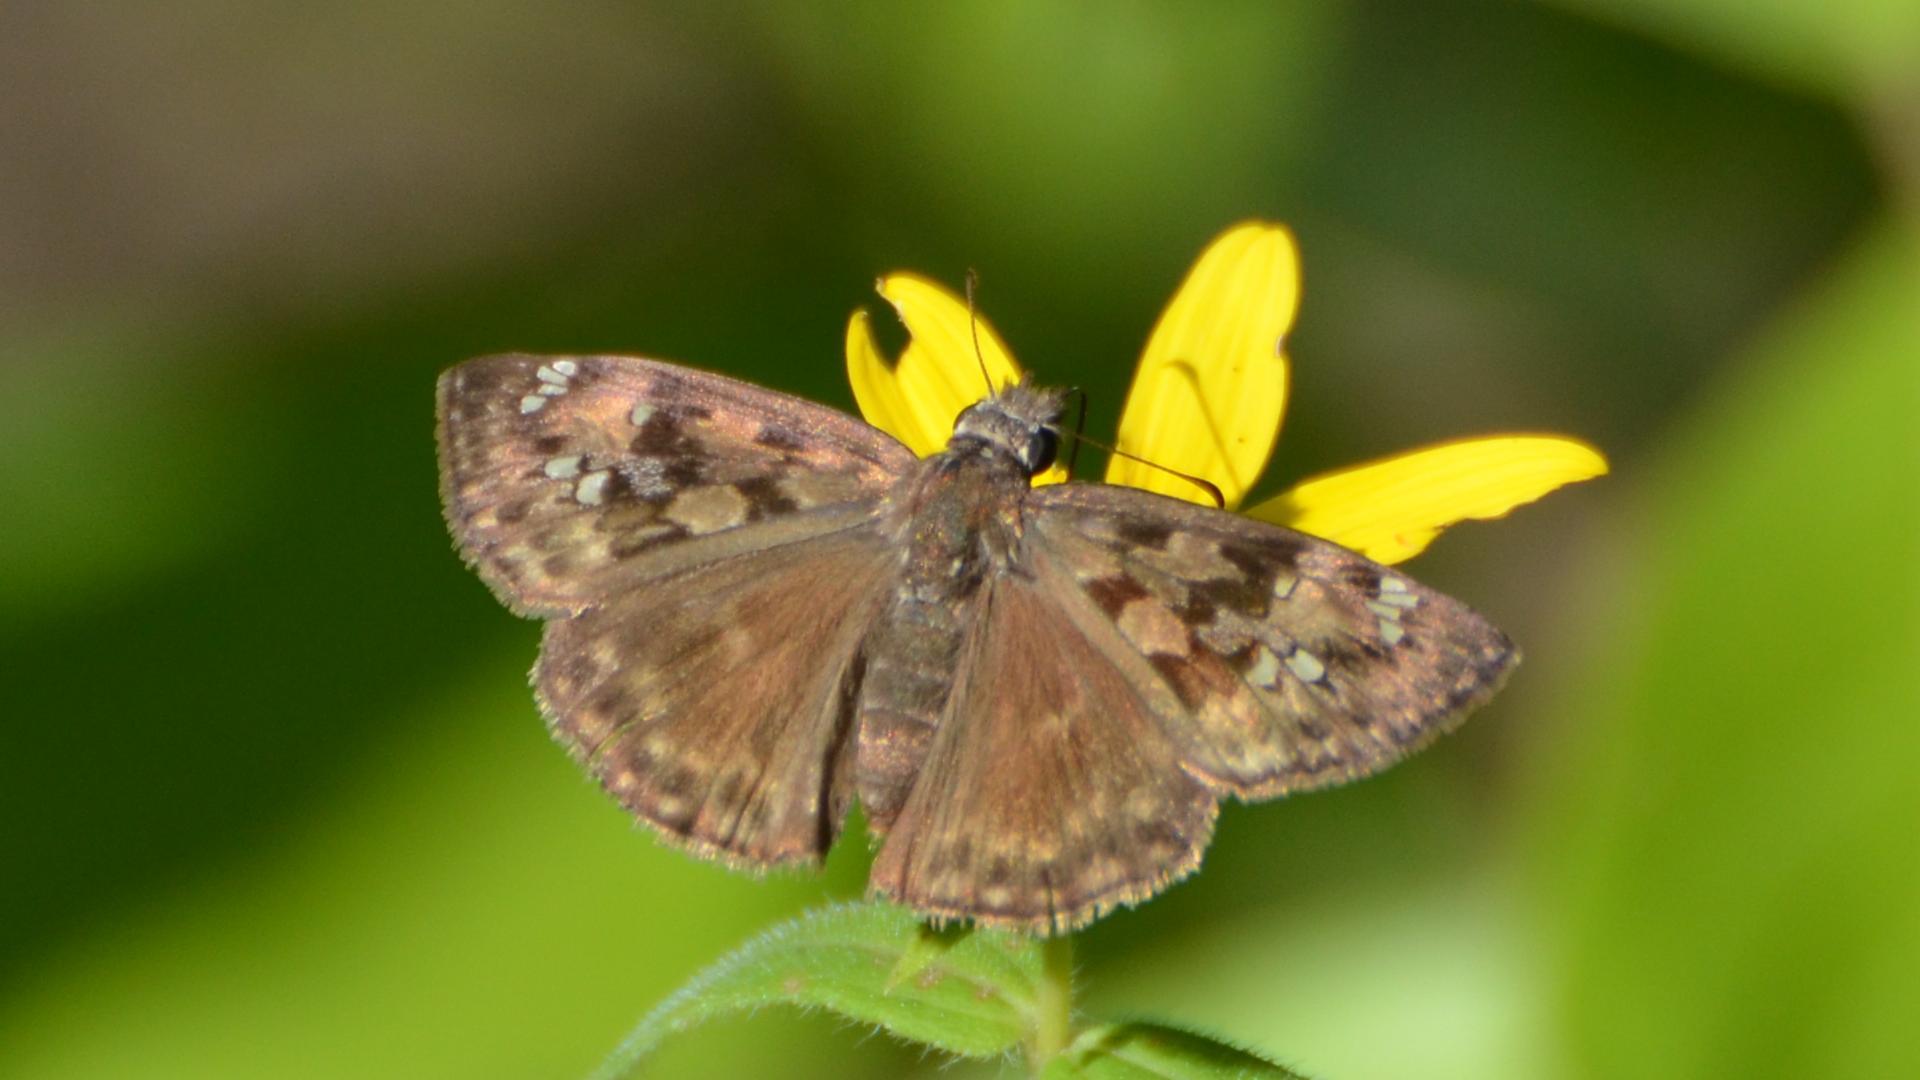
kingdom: Animalia
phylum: Arthropoda
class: Insecta
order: Lepidoptera
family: Hesperiidae
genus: Erynnis
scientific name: Erynnis horatius
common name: Horace's duskywing
